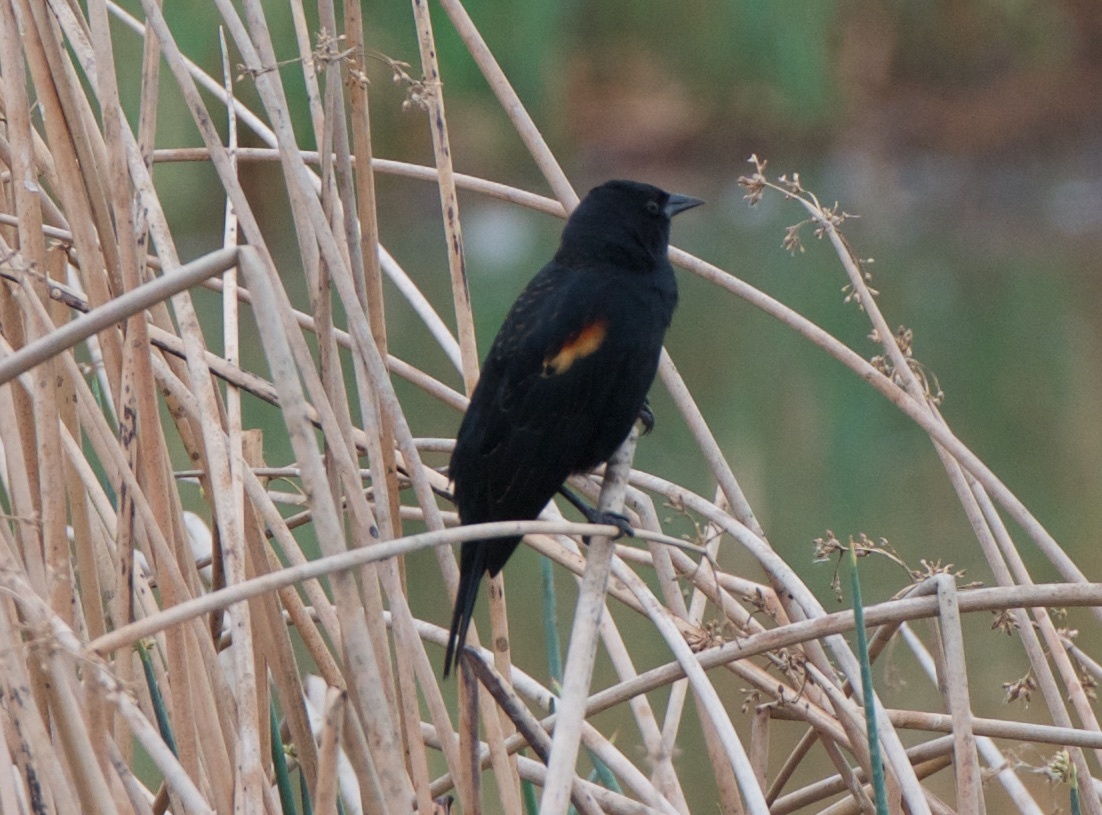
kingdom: Animalia
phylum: Chordata
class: Aves
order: Passeriformes
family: Icteridae
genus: Agelaius
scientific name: Agelaius phoeniceus
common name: Red-winged blackbird
